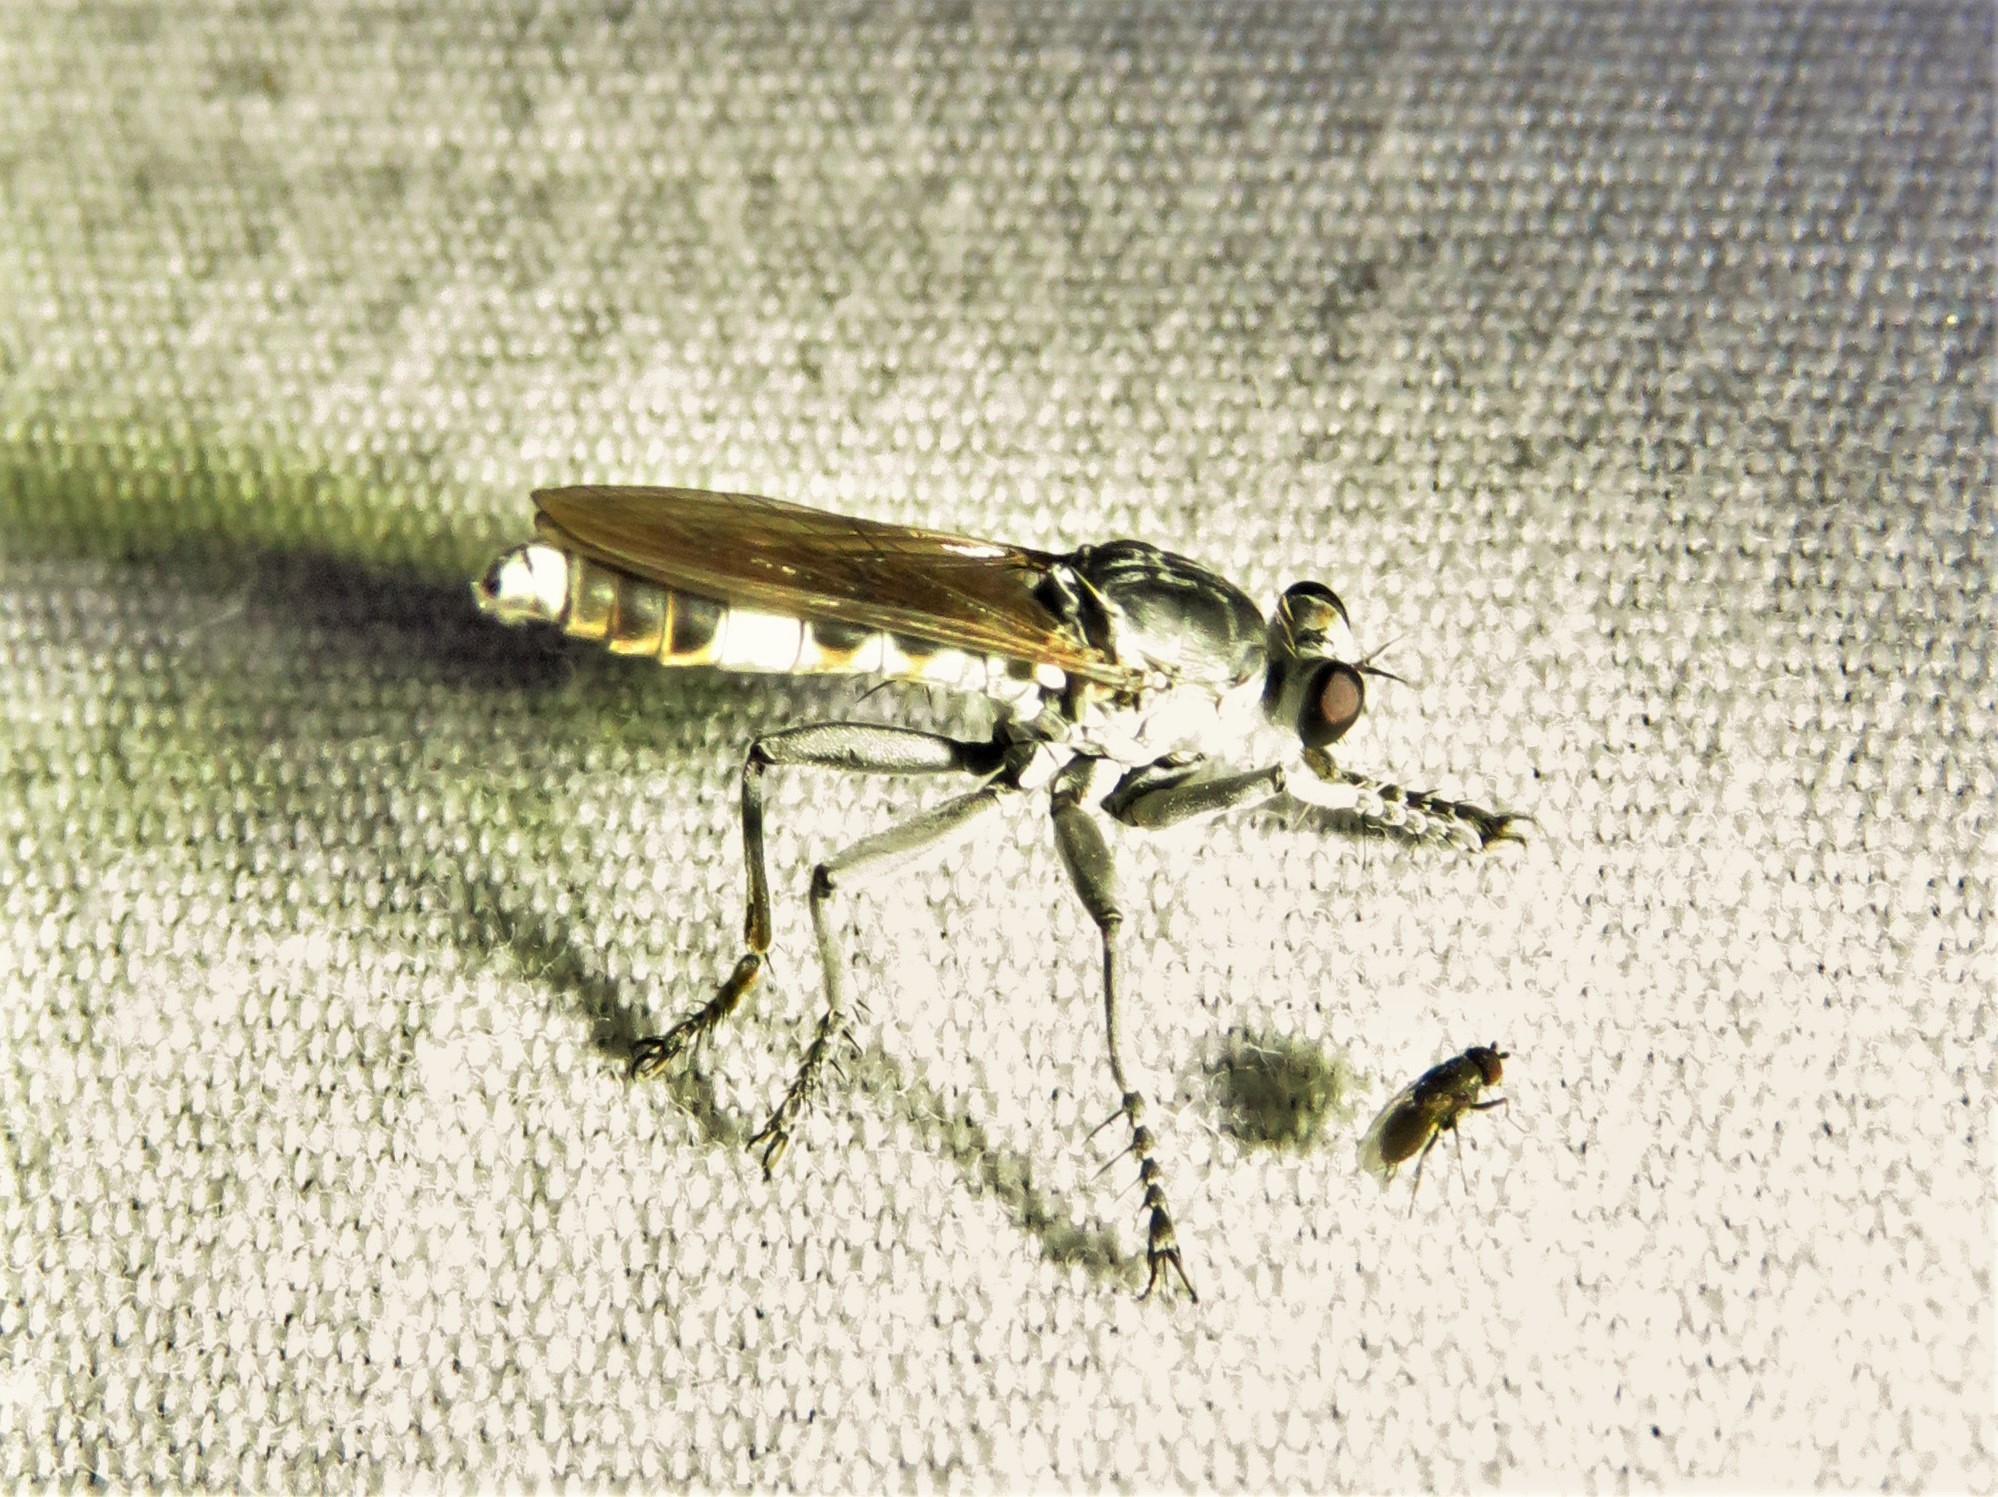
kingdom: Animalia
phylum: Arthropoda
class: Insecta
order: Diptera
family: Asilidae
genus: Stichopogon
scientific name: Stichopogon trifasciatus
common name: Three-banded robber fly
